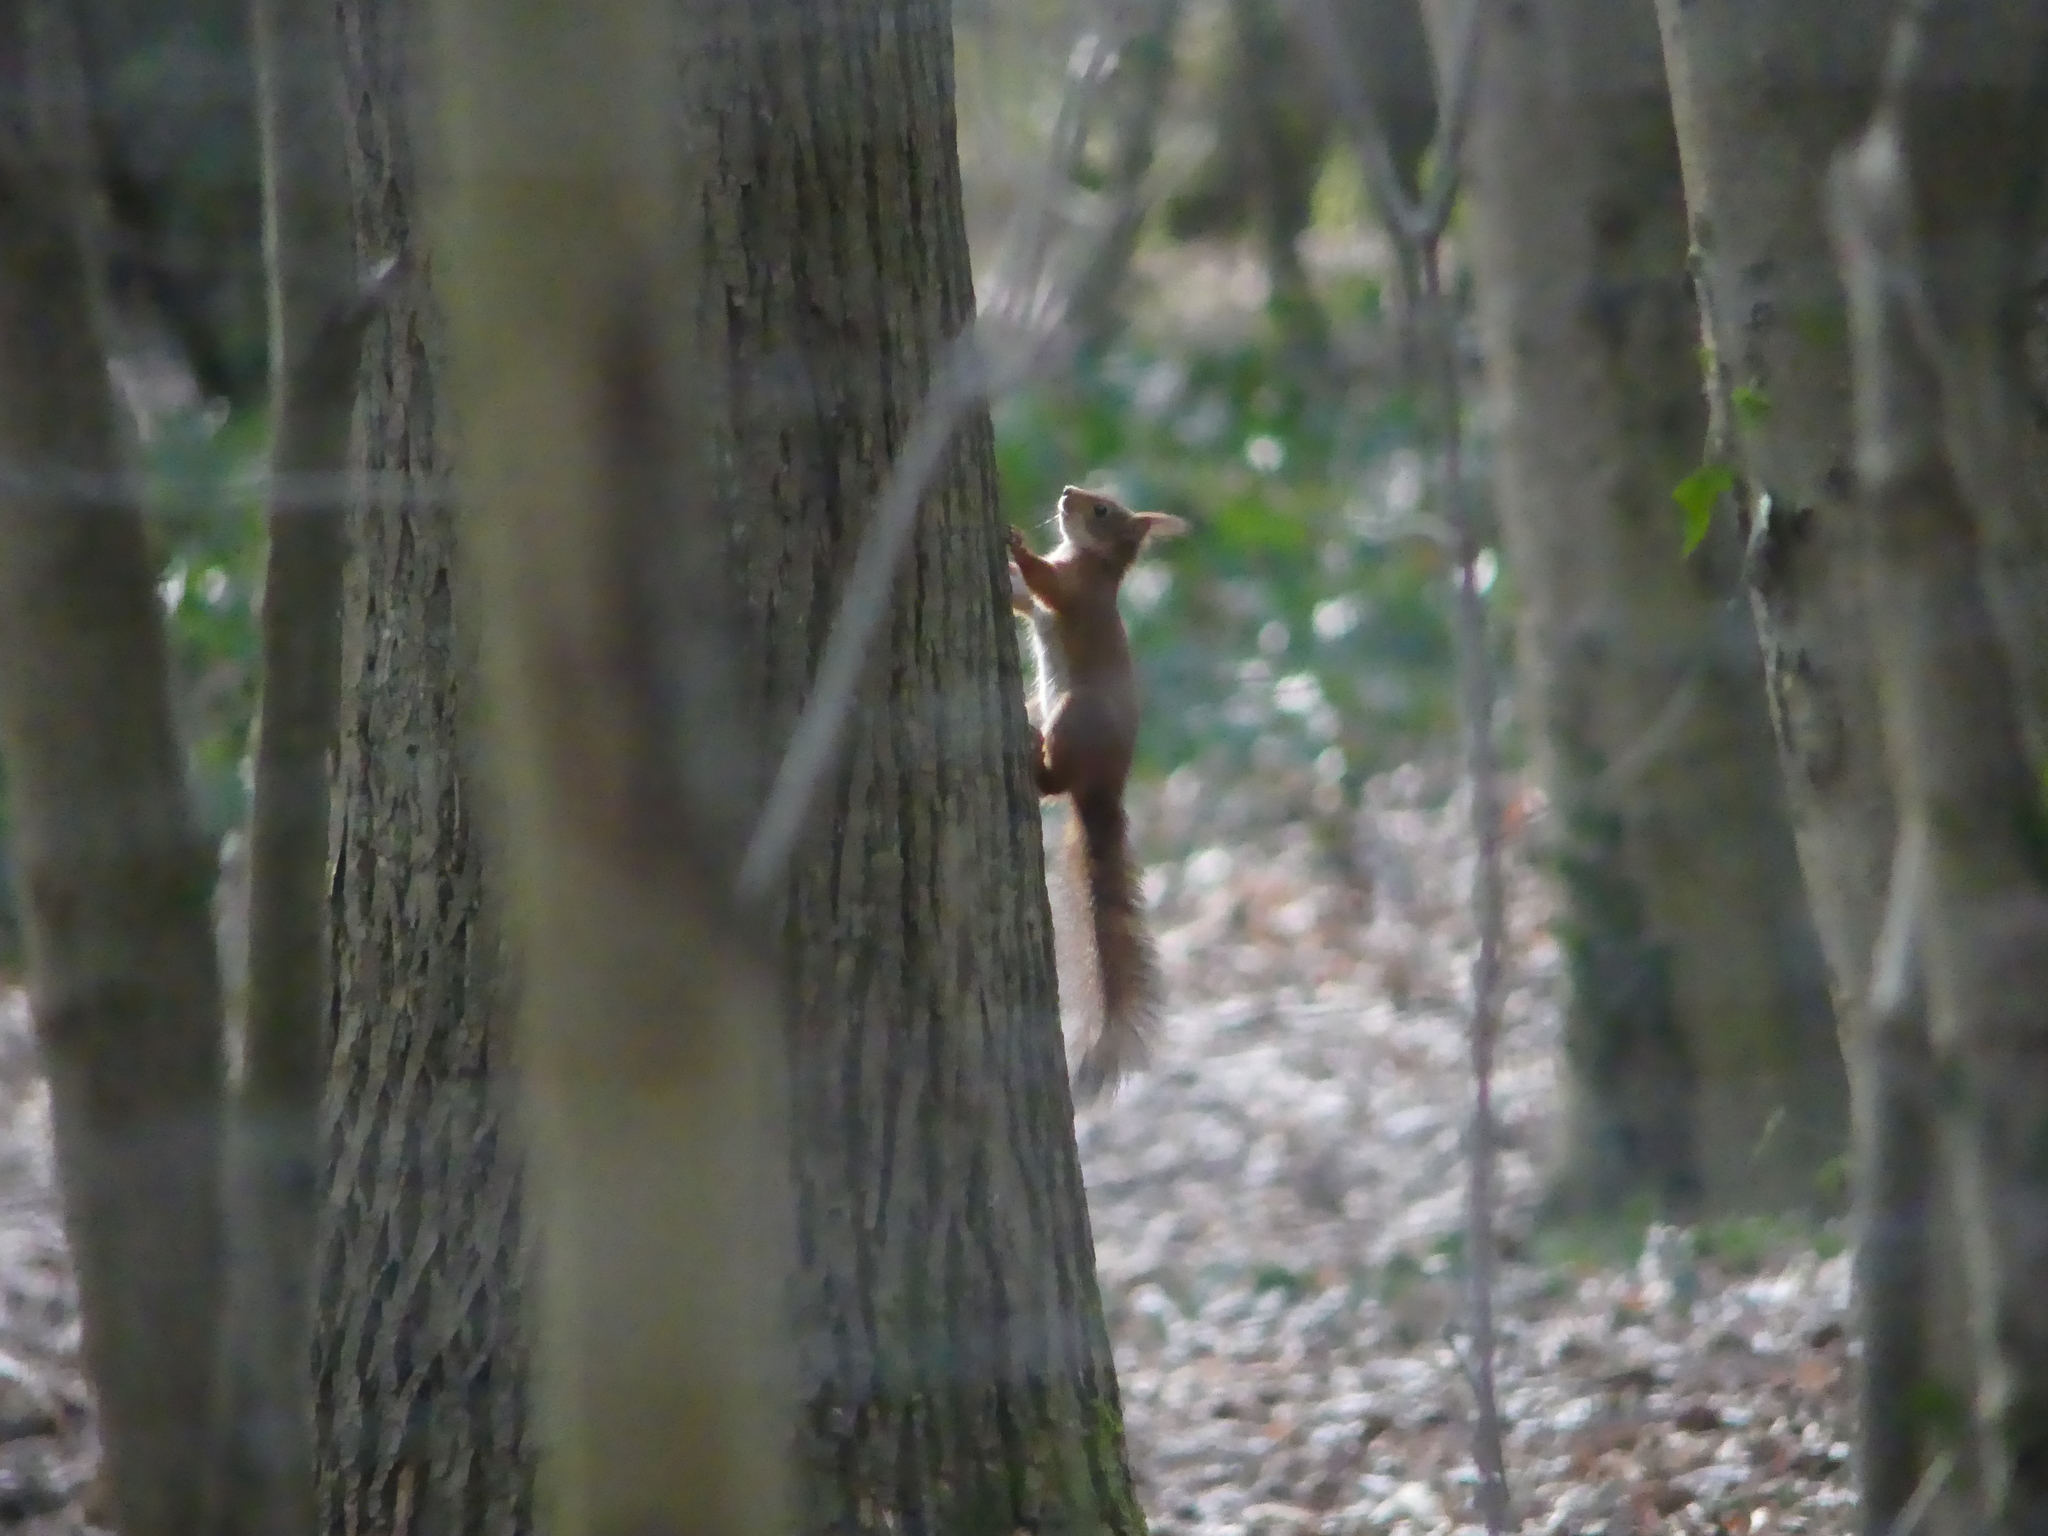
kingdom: Animalia
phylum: Chordata
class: Mammalia
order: Rodentia
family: Sciuridae
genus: Sciurus
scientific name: Sciurus vulgaris
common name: Eurasian red squirrel
